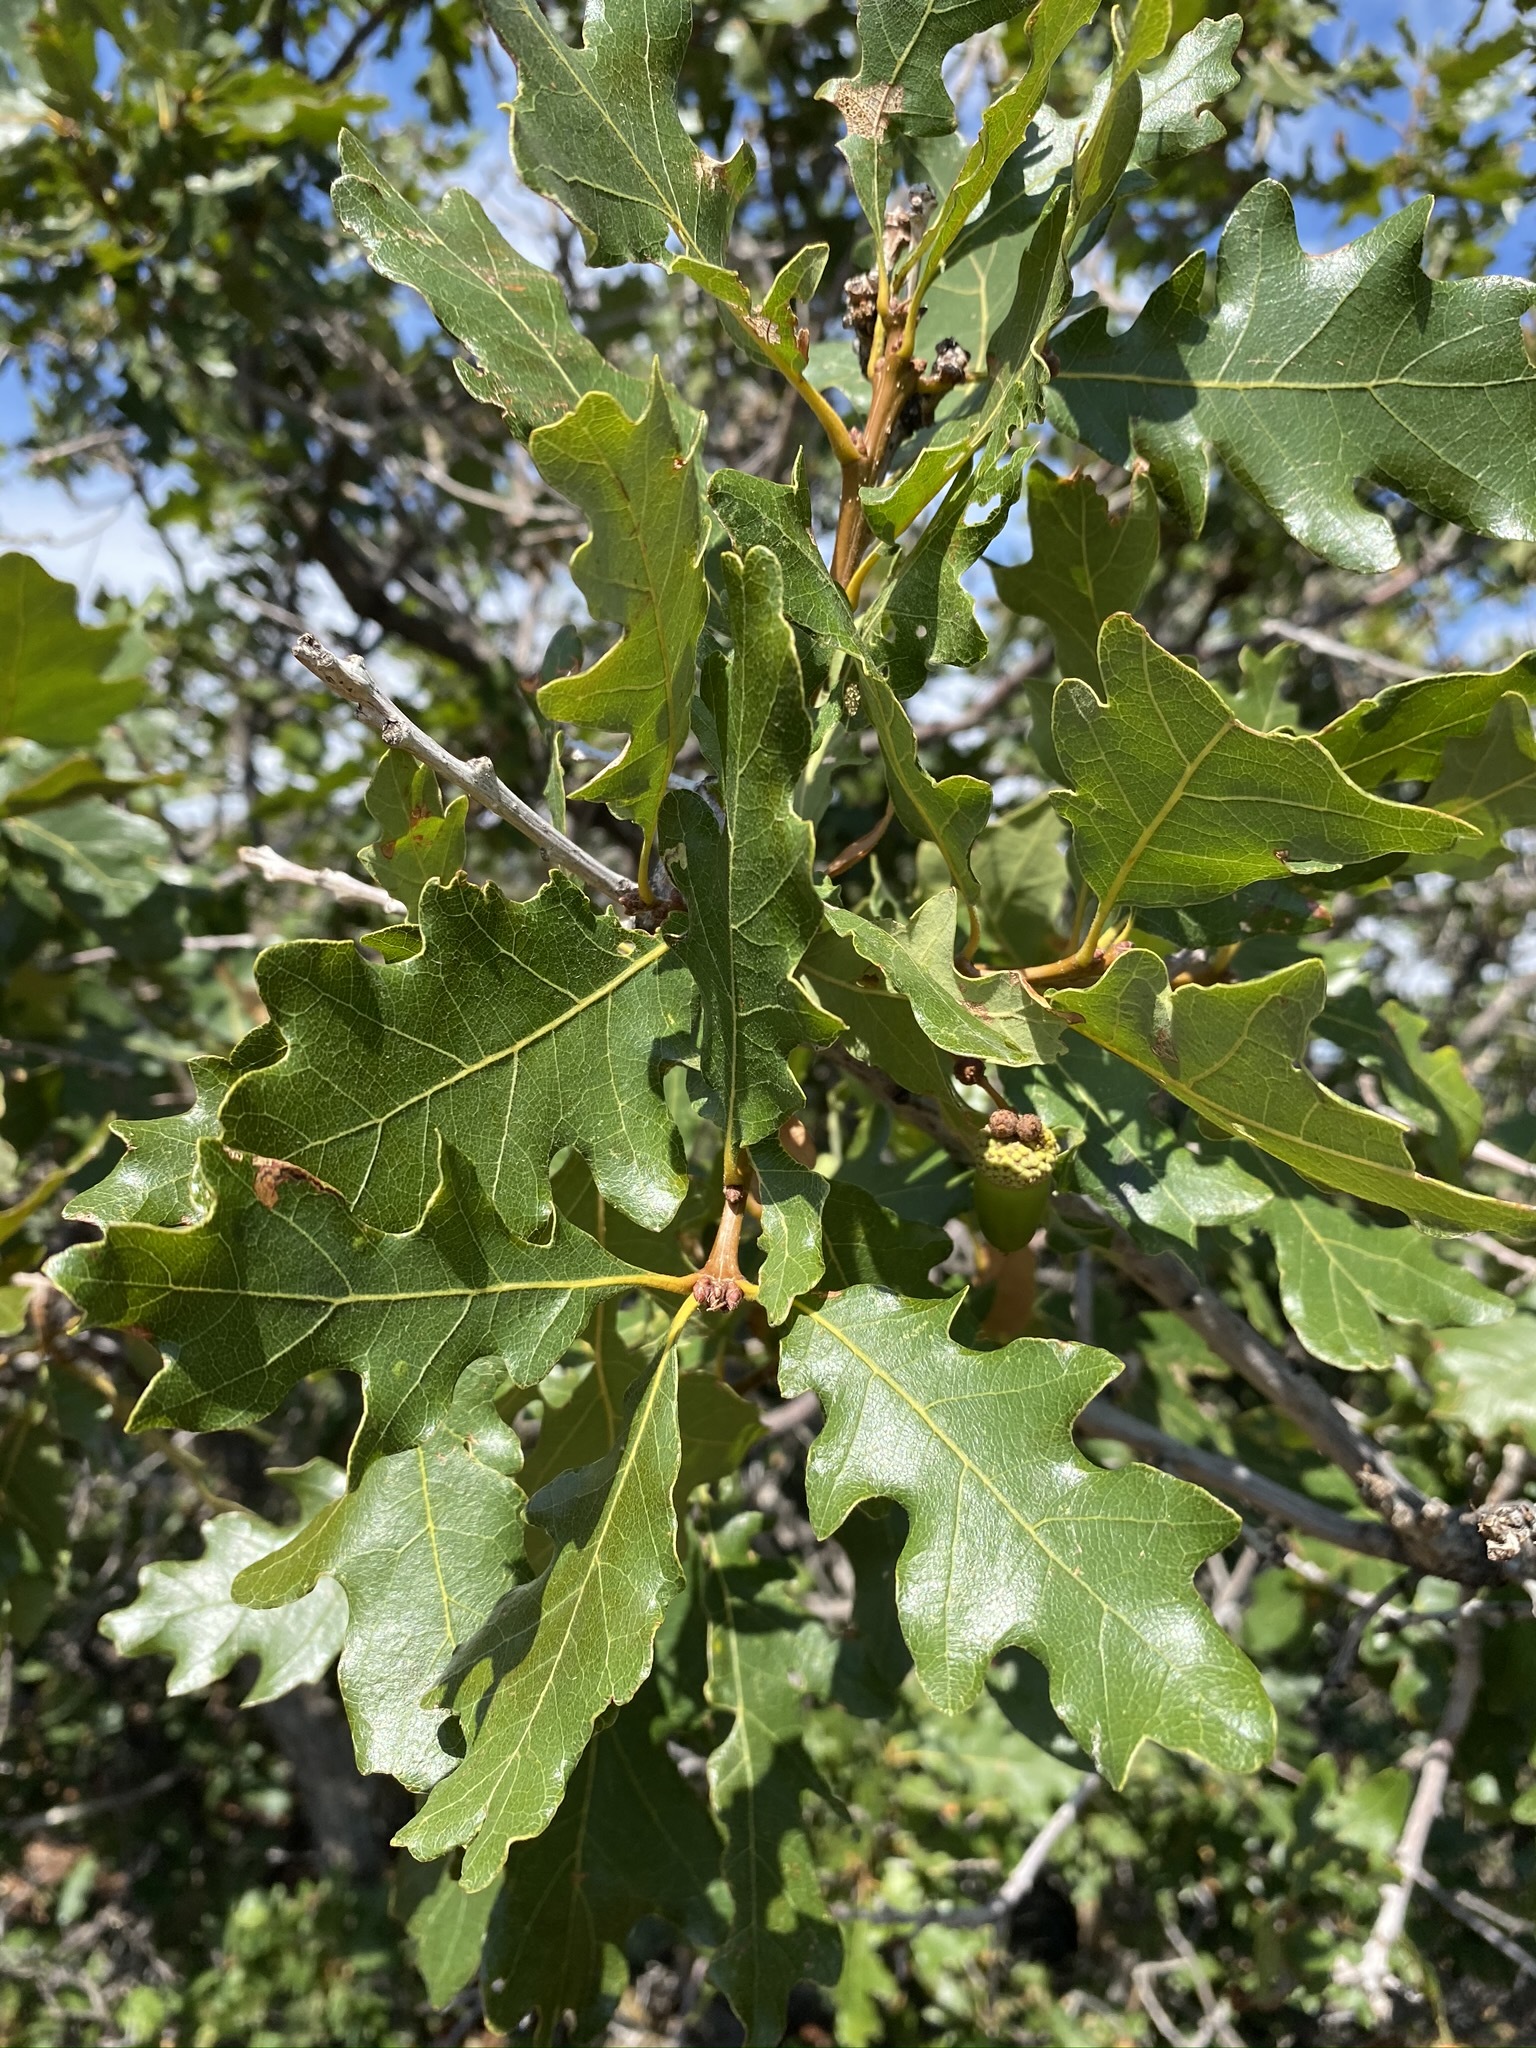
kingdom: Plantae
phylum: Tracheophyta
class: Magnoliopsida
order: Fagales
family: Fagaceae
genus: Quercus
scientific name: Quercus gambelii
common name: Gambel oak
